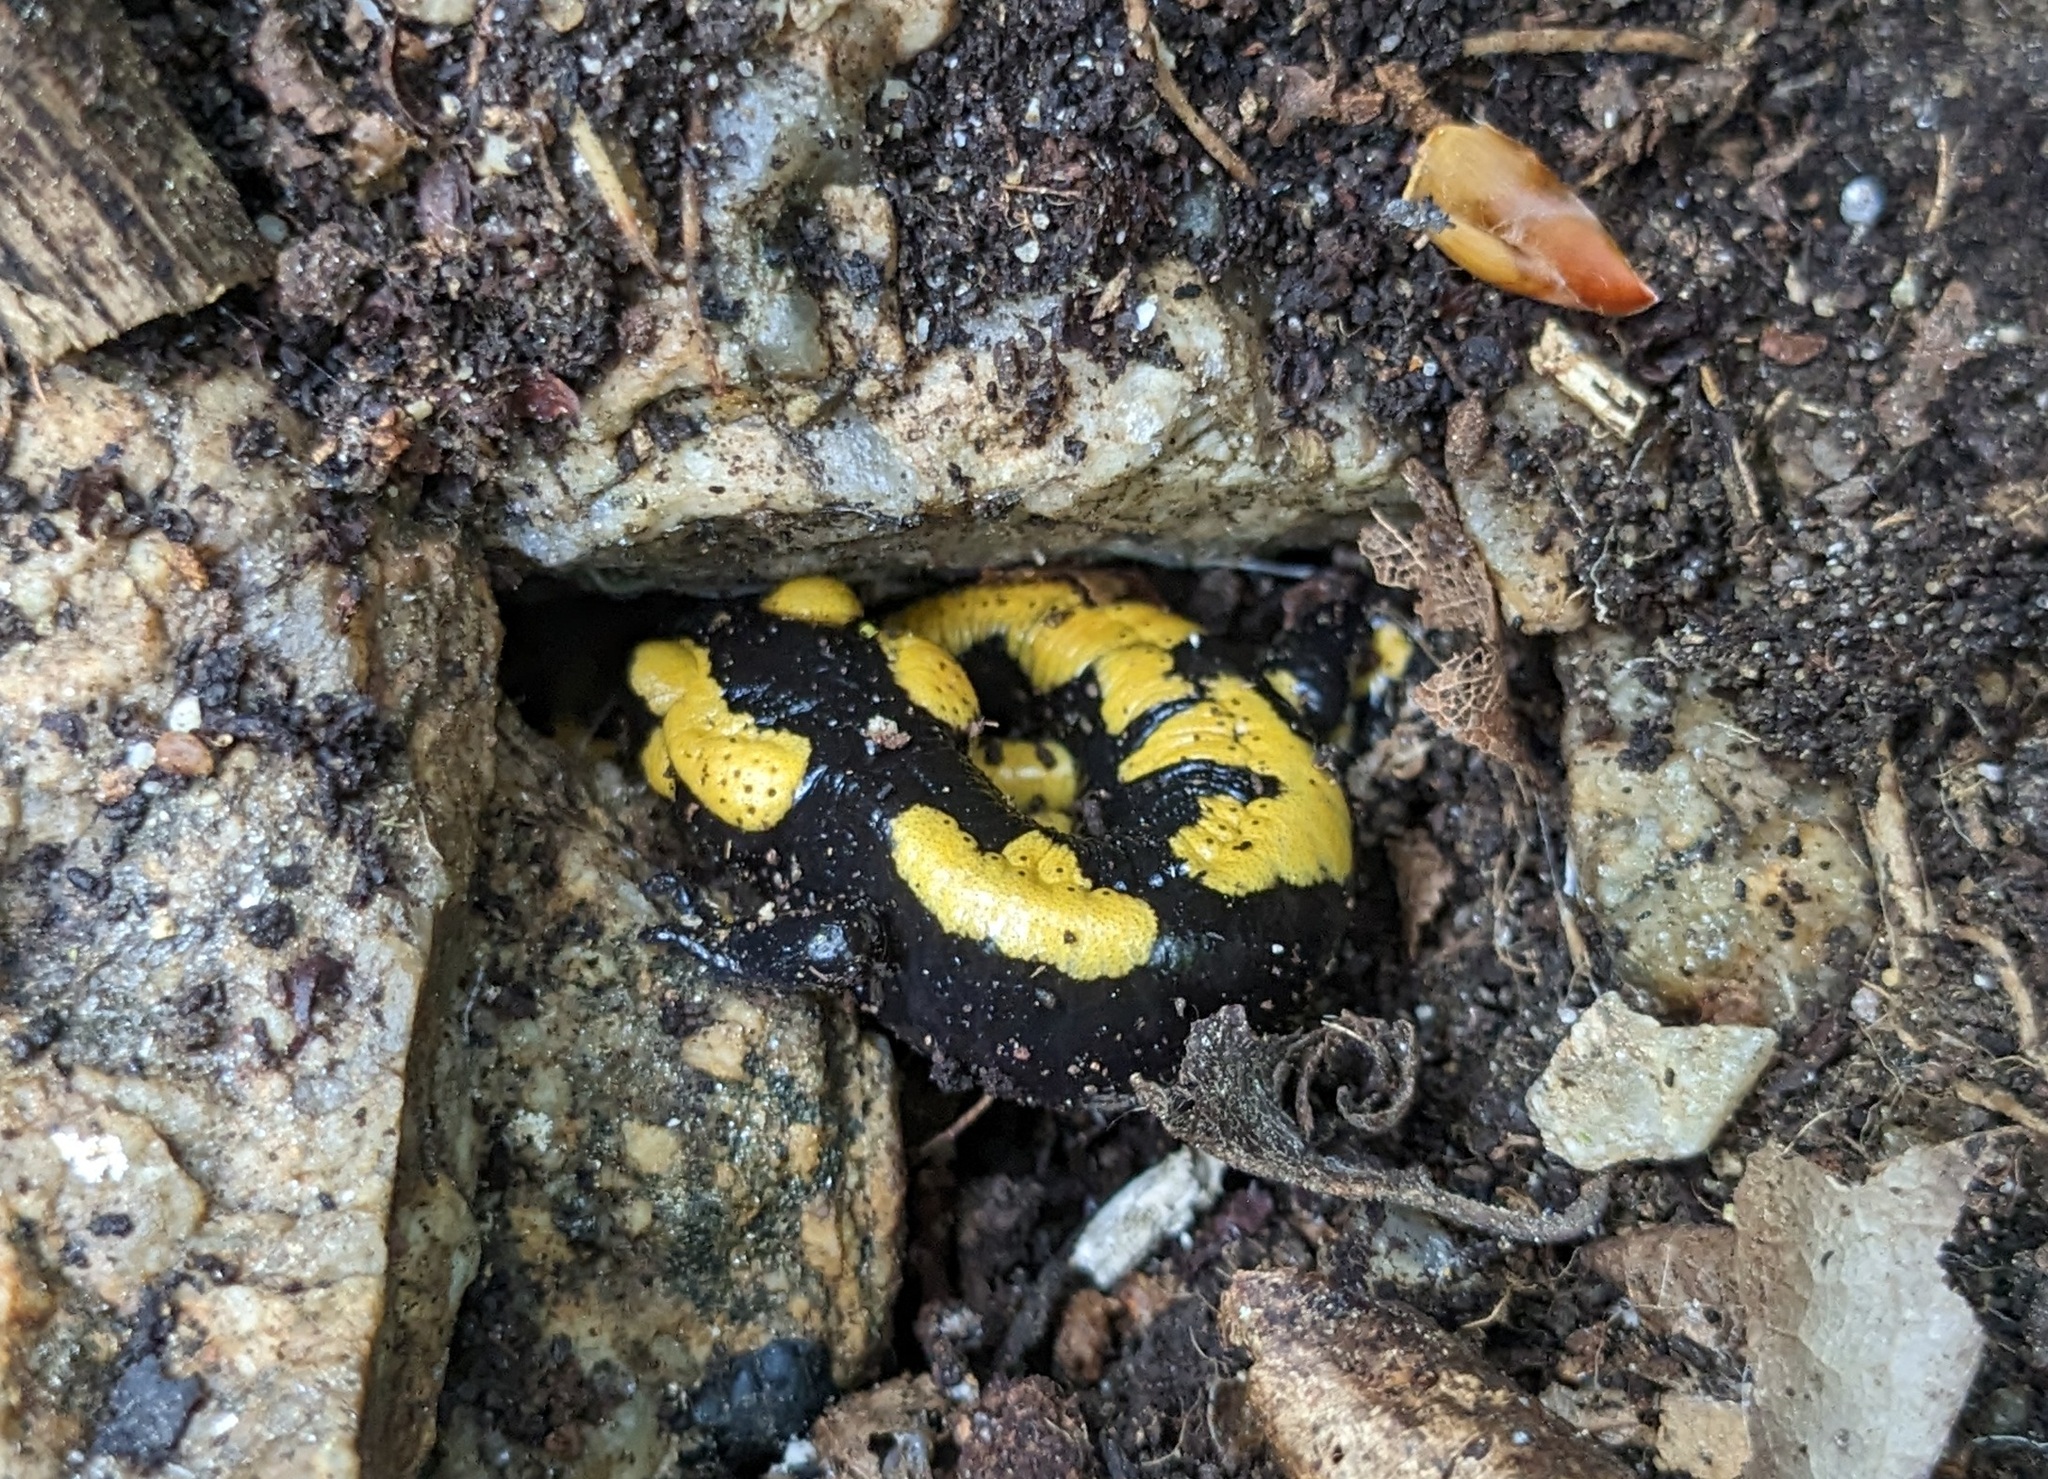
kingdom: Animalia
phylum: Chordata
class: Amphibia
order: Caudata
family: Salamandridae
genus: Salamandra
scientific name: Salamandra salamandra
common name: Fire salamander
